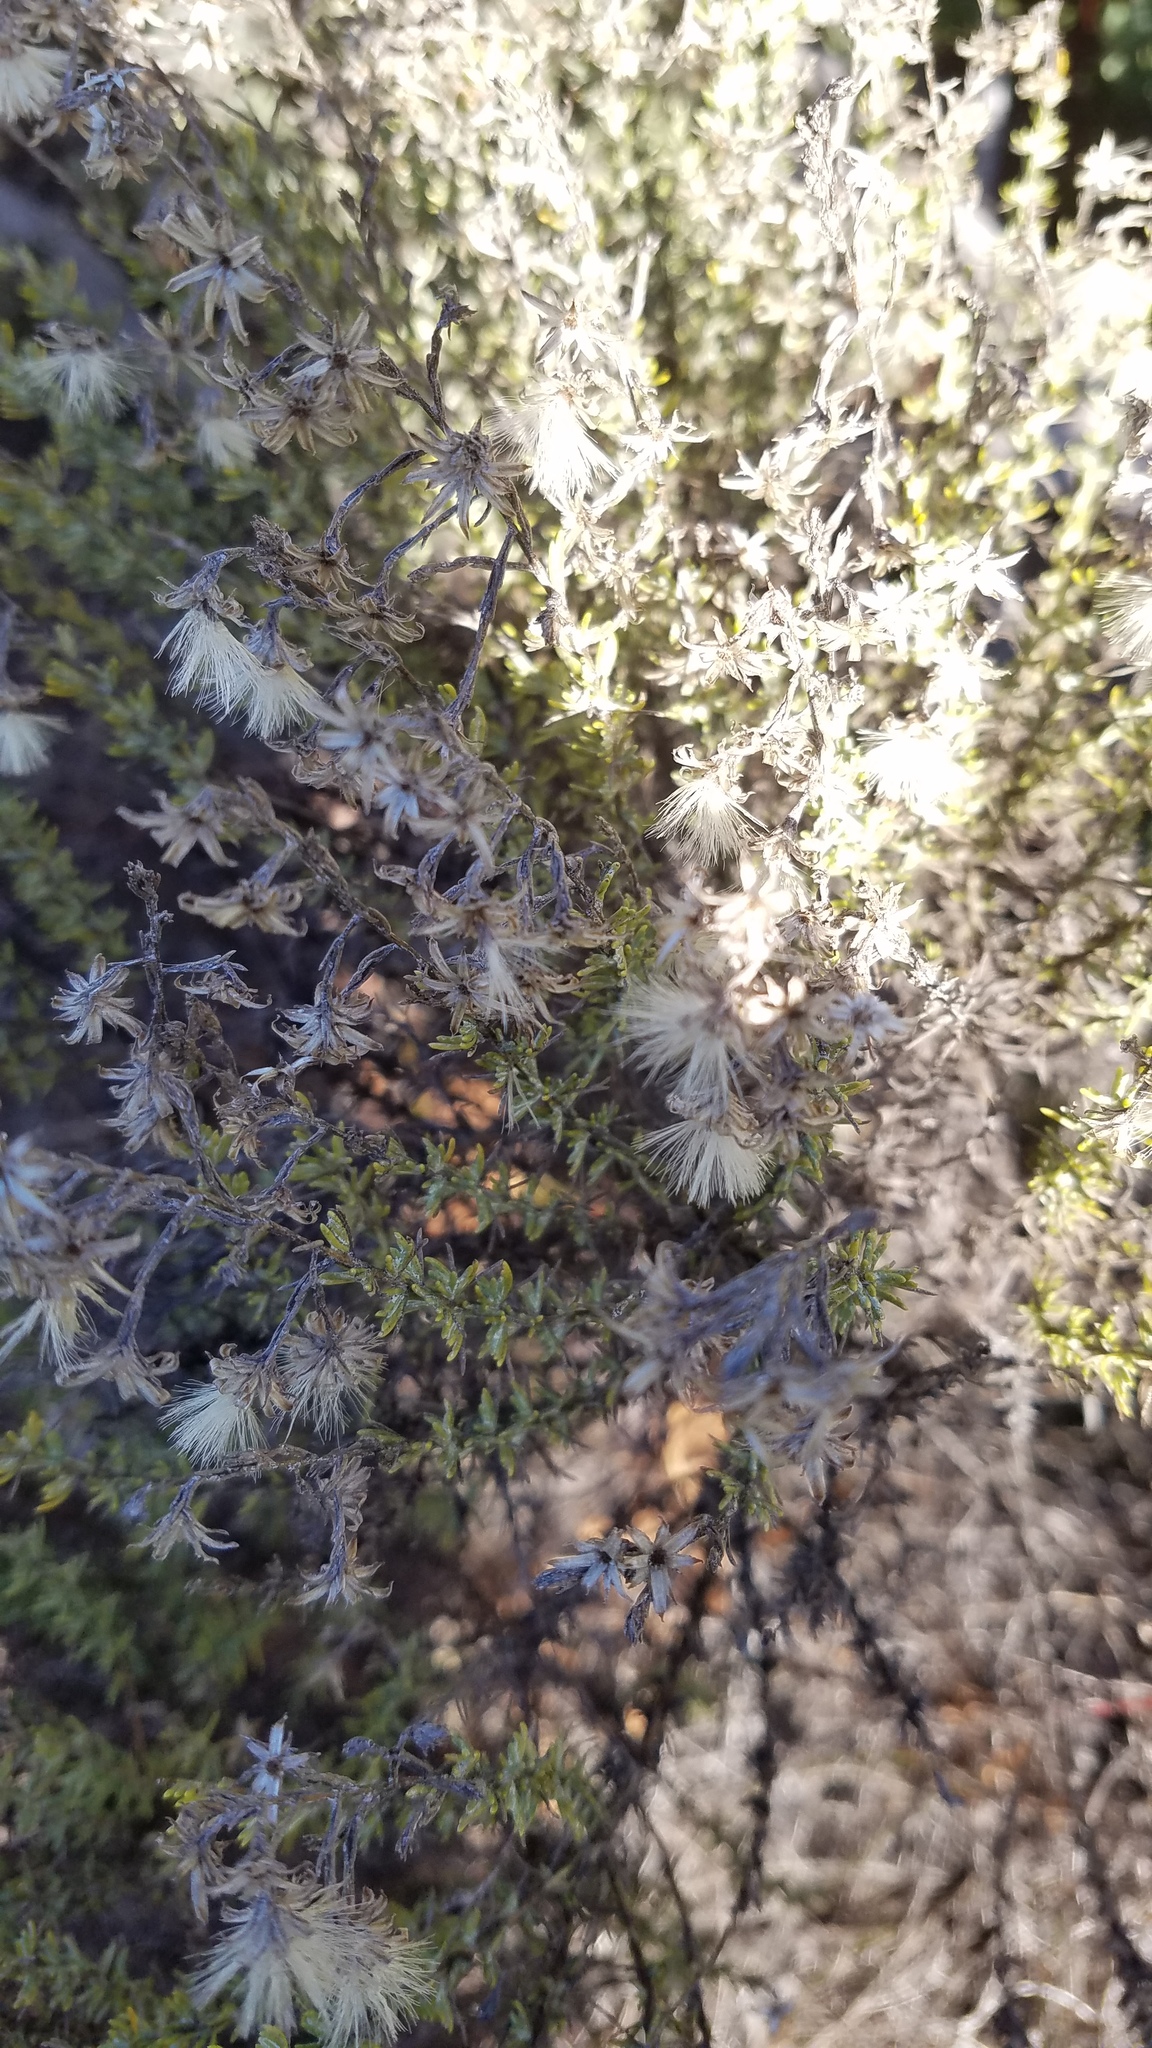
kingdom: Plantae
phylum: Tracheophyta
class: Magnoliopsida
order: Asterales
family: Asteraceae
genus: Ericameria
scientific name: Ericameria ericoides
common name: California goldenbush
